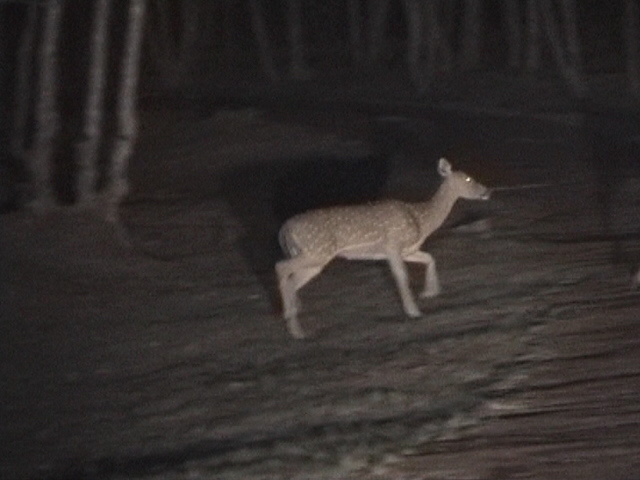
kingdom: Animalia
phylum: Chordata
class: Mammalia
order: Artiodactyla
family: Cervidae
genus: Axis
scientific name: Axis axis
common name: Chital
